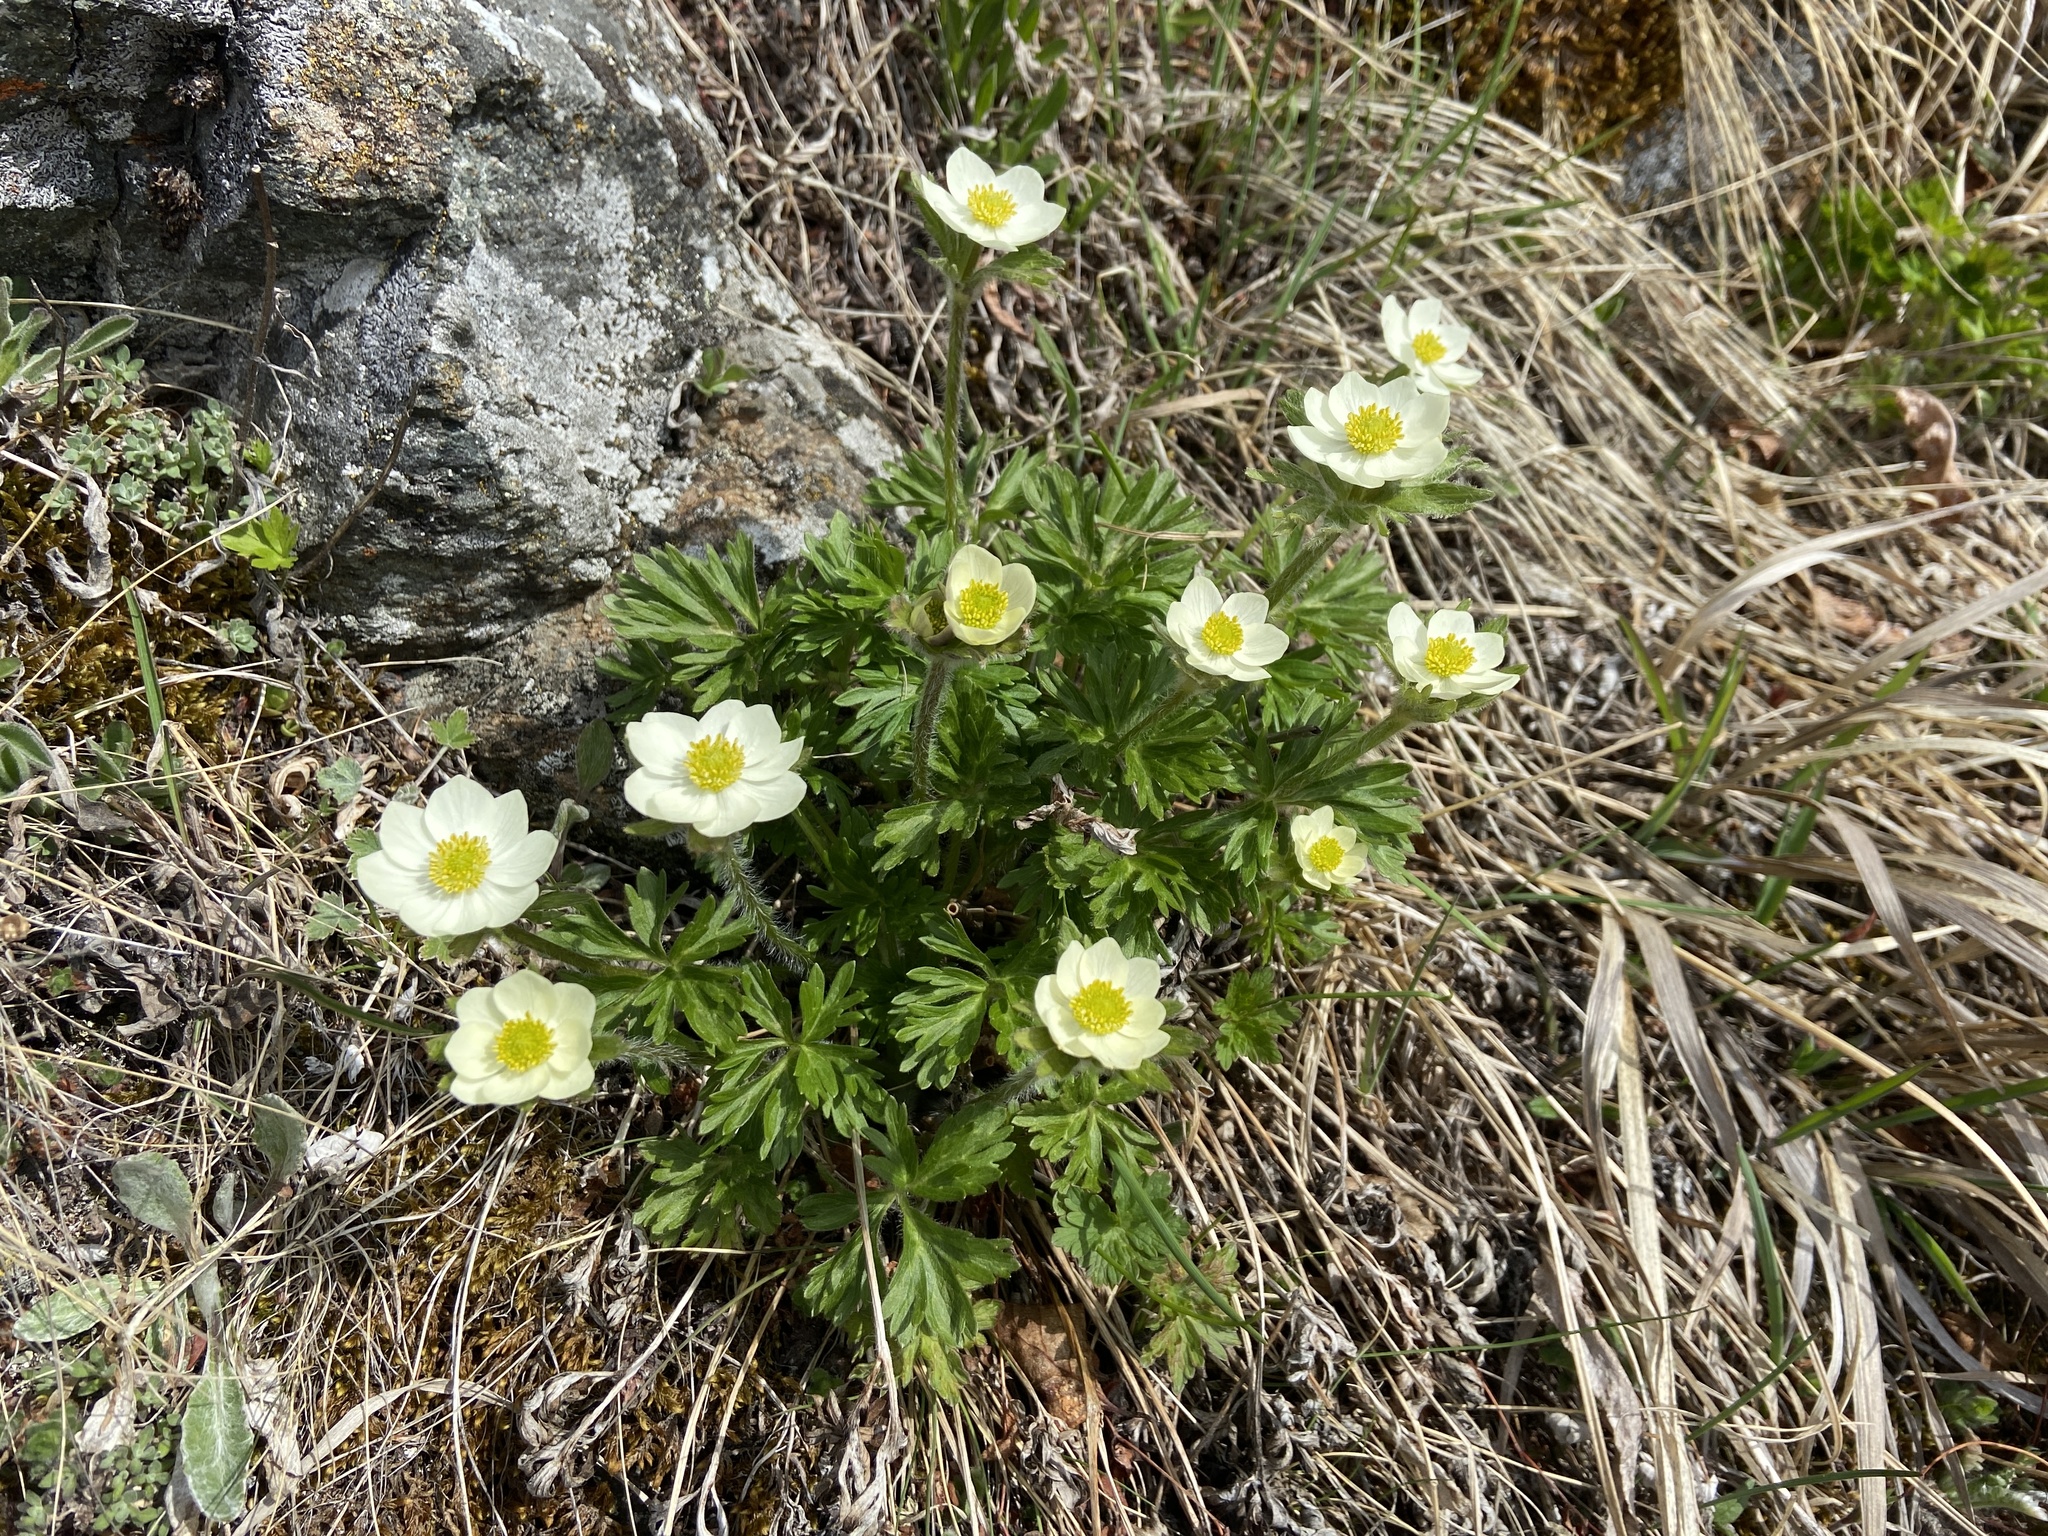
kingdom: Plantae
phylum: Tracheophyta
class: Magnoliopsida
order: Ranunculales
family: Ranunculaceae
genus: Anemonastrum
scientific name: Anemonastrum narcissiflorum
